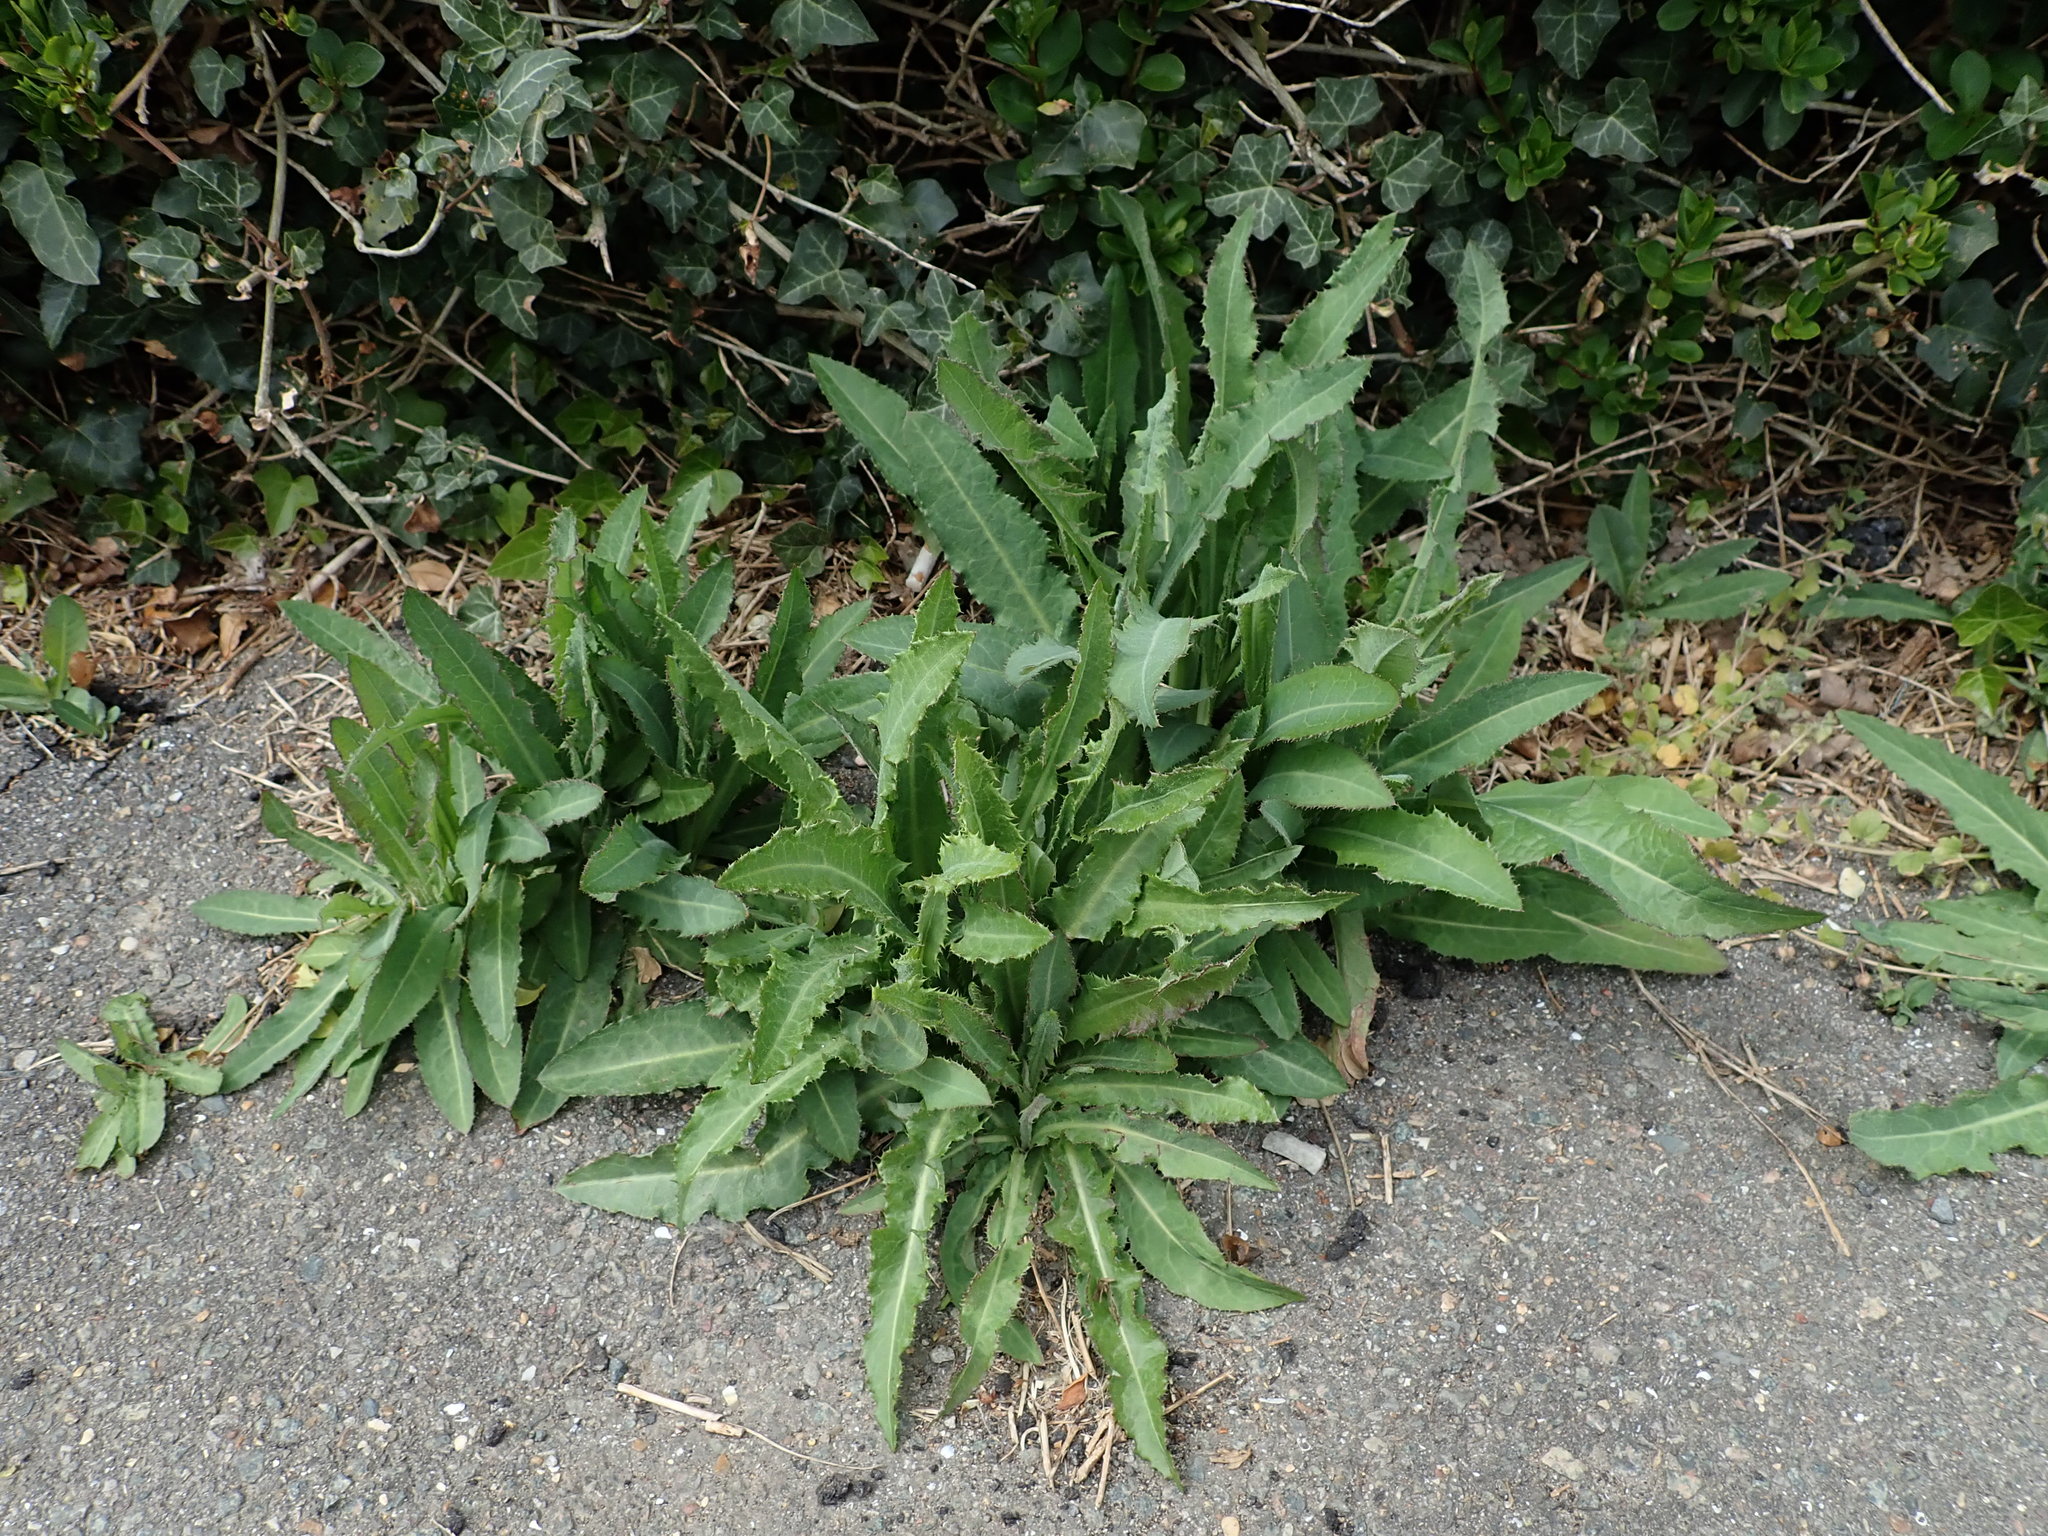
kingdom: Plantae
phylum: Tracheophyta
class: Magnoliopsida
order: Asterales
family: Asteraceae
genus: Sonchus
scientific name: Sonchus arvensis
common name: Perennial sow-thistle
